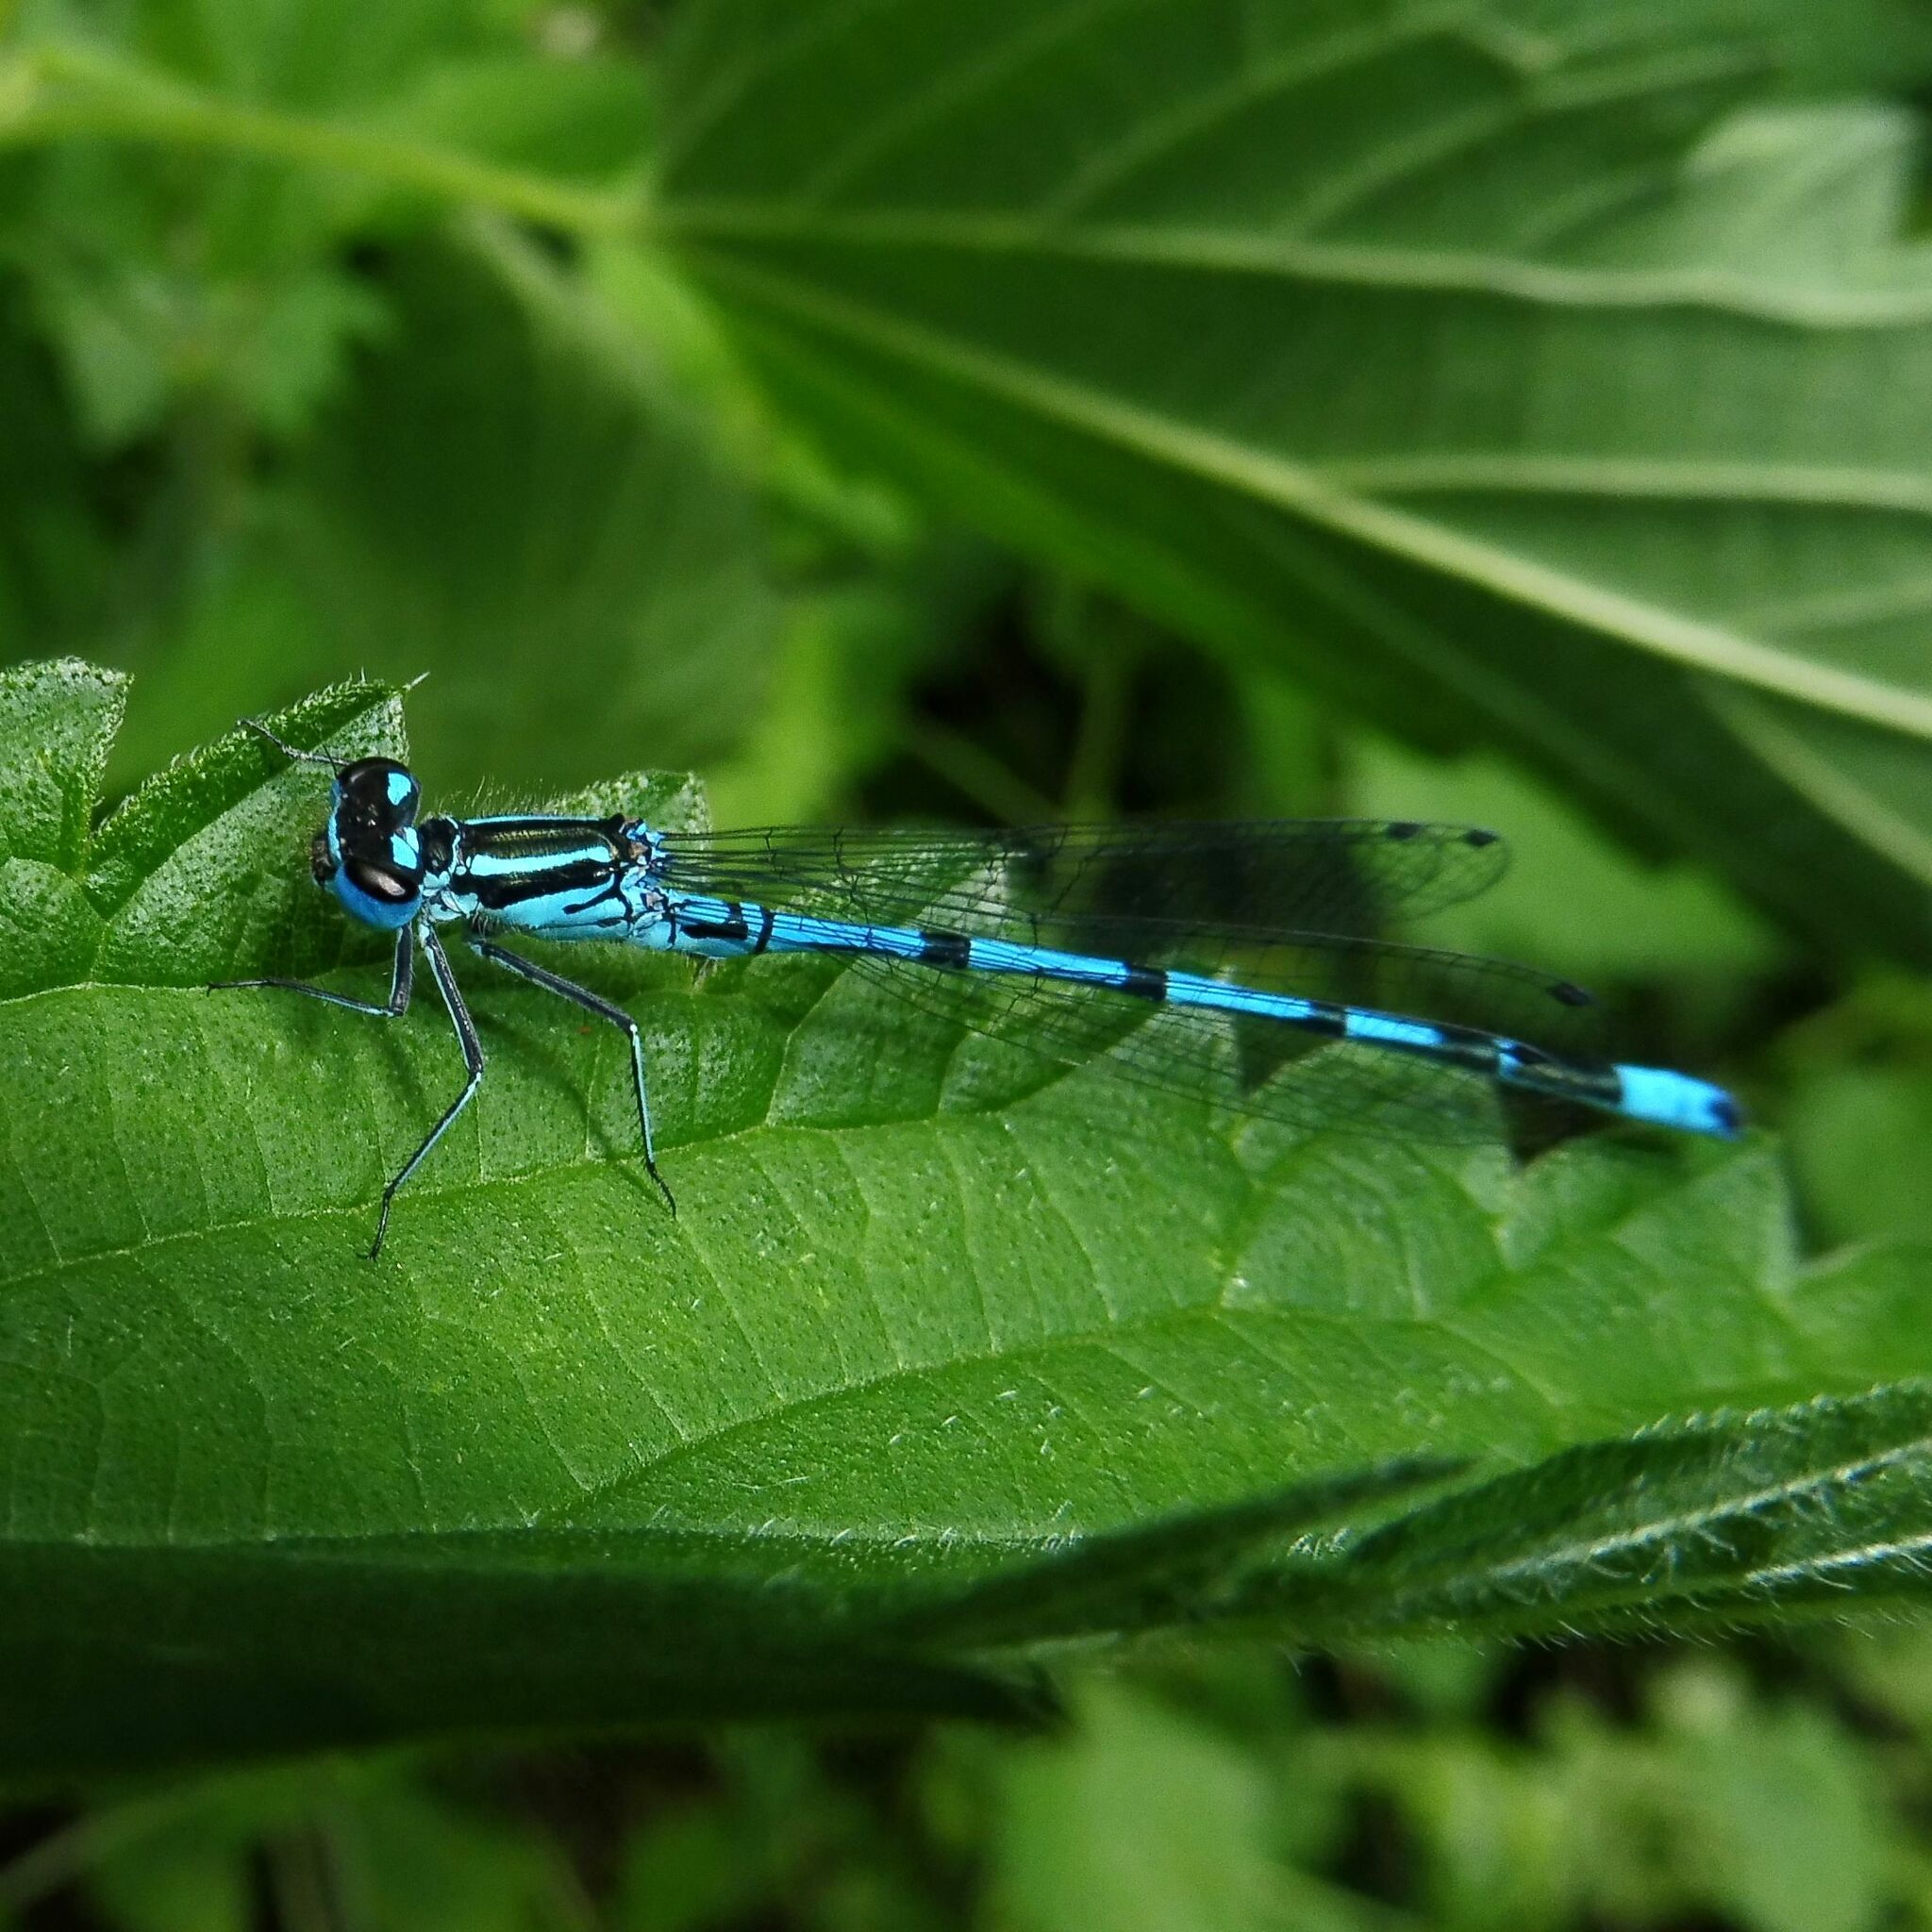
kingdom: Animalia
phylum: Arthropoda
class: Insecta
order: Odonata
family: Coenagrionidae
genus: Coenagrion
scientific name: Coenagrion puella
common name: Azure damselfly
